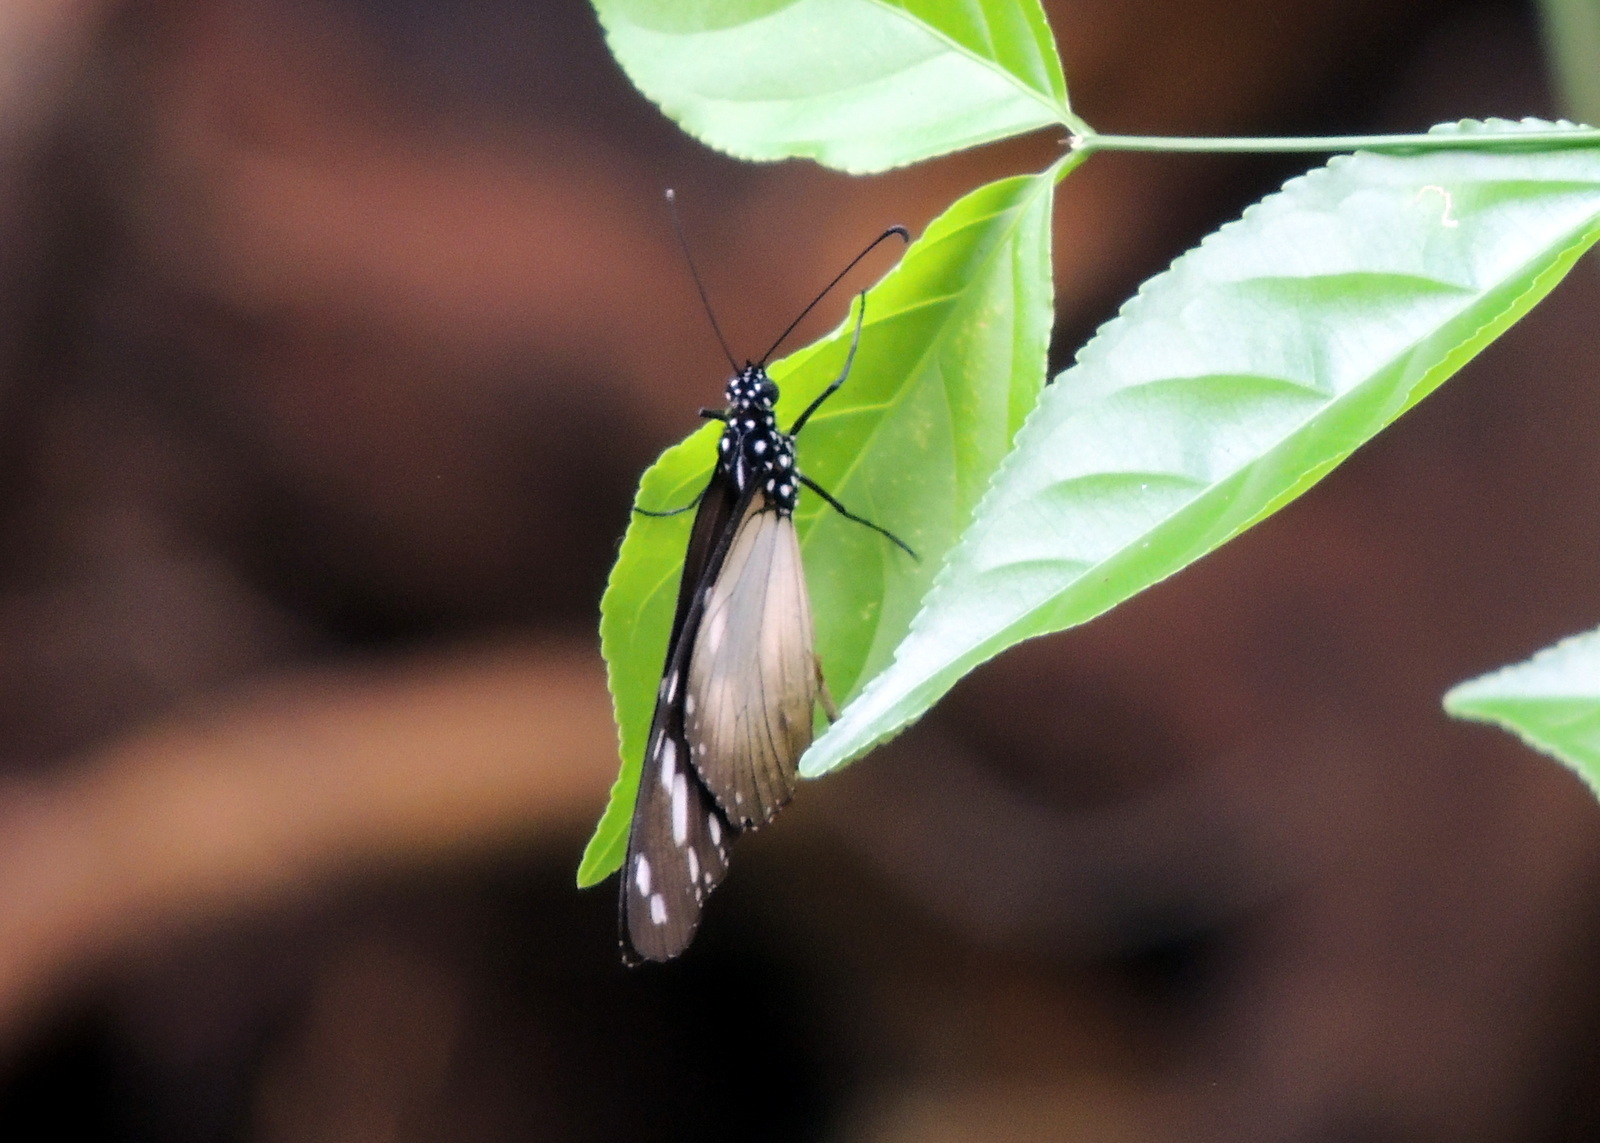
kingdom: Animalia
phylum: Arthropoda
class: Insecta
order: Lepidoptera
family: Nymphalidae
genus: Amauris
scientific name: Amauris damocles
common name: Small monk
